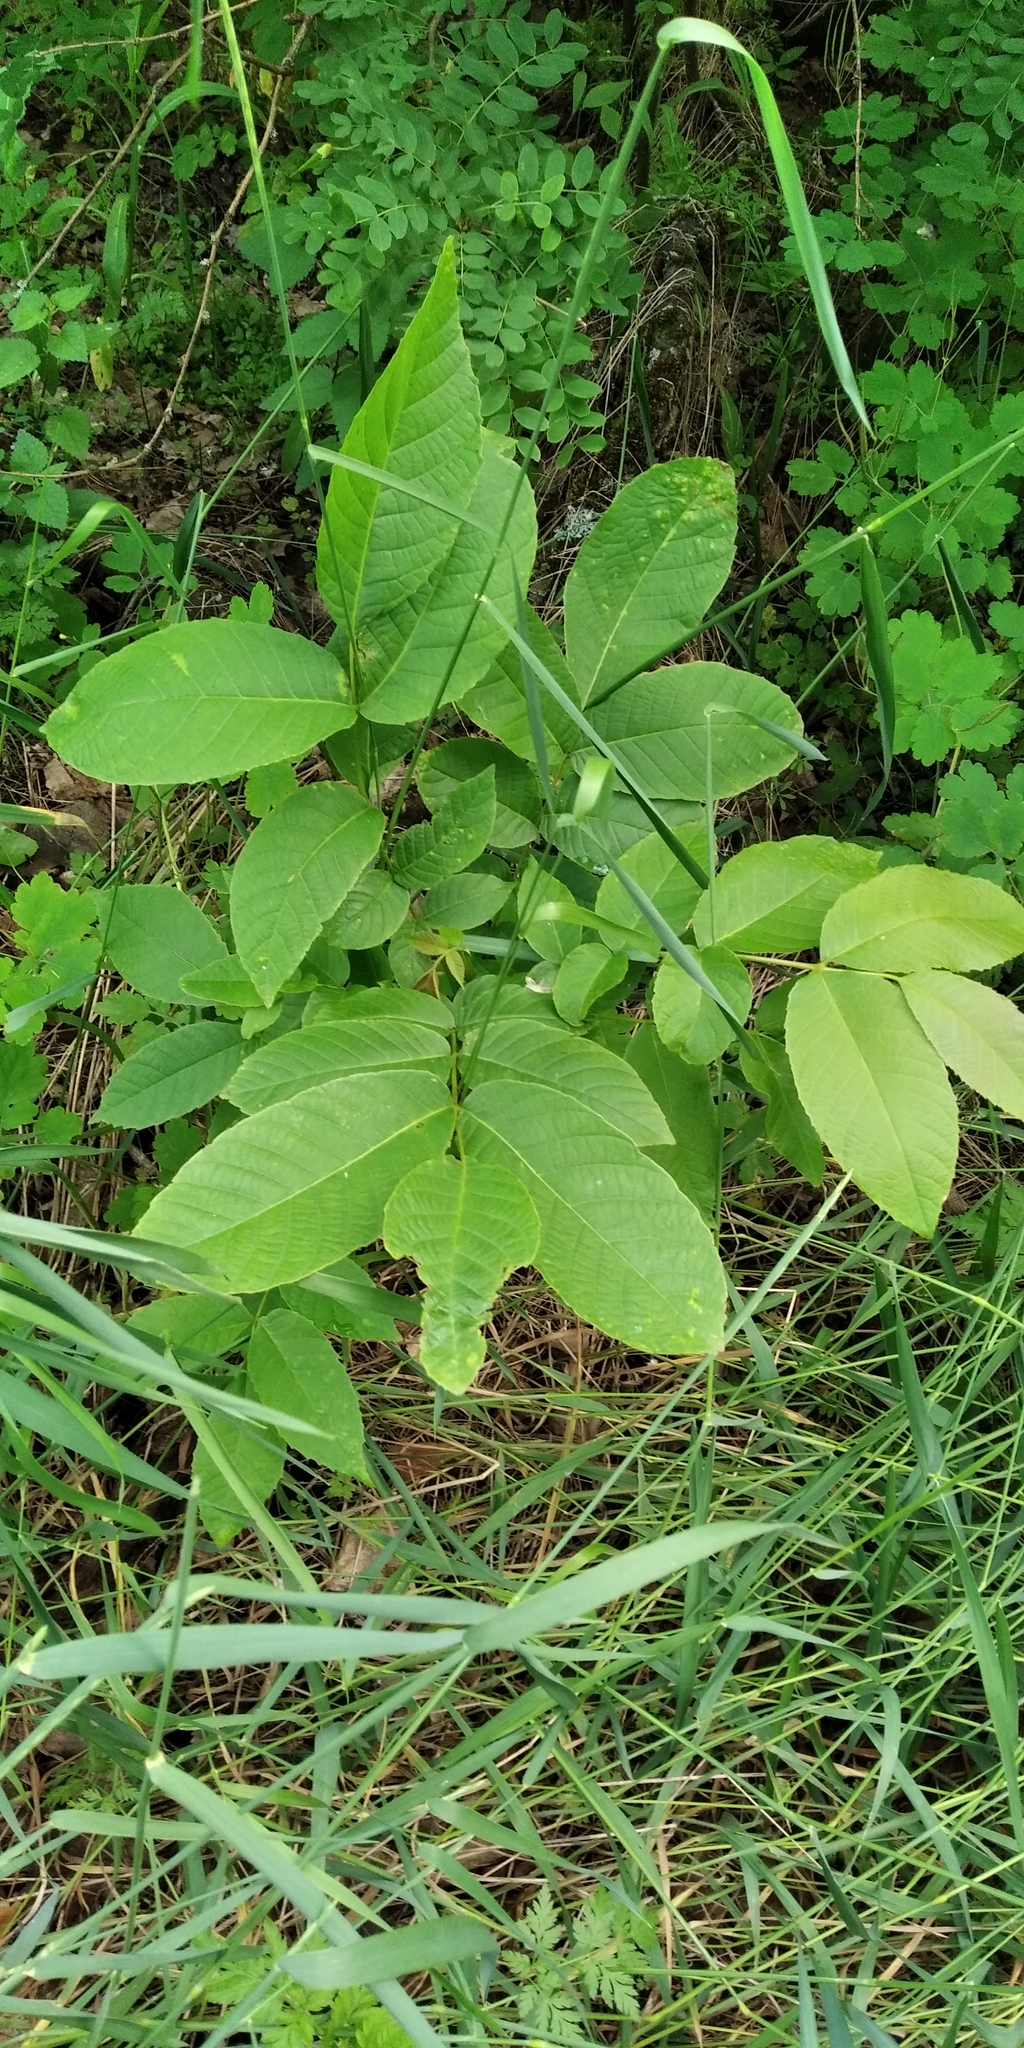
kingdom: Plantae
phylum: Tracheophyta
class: Magnoliopsida
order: Fagales
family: Juglandaceae
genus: Juglans
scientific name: Juglans regia
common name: Walnut
